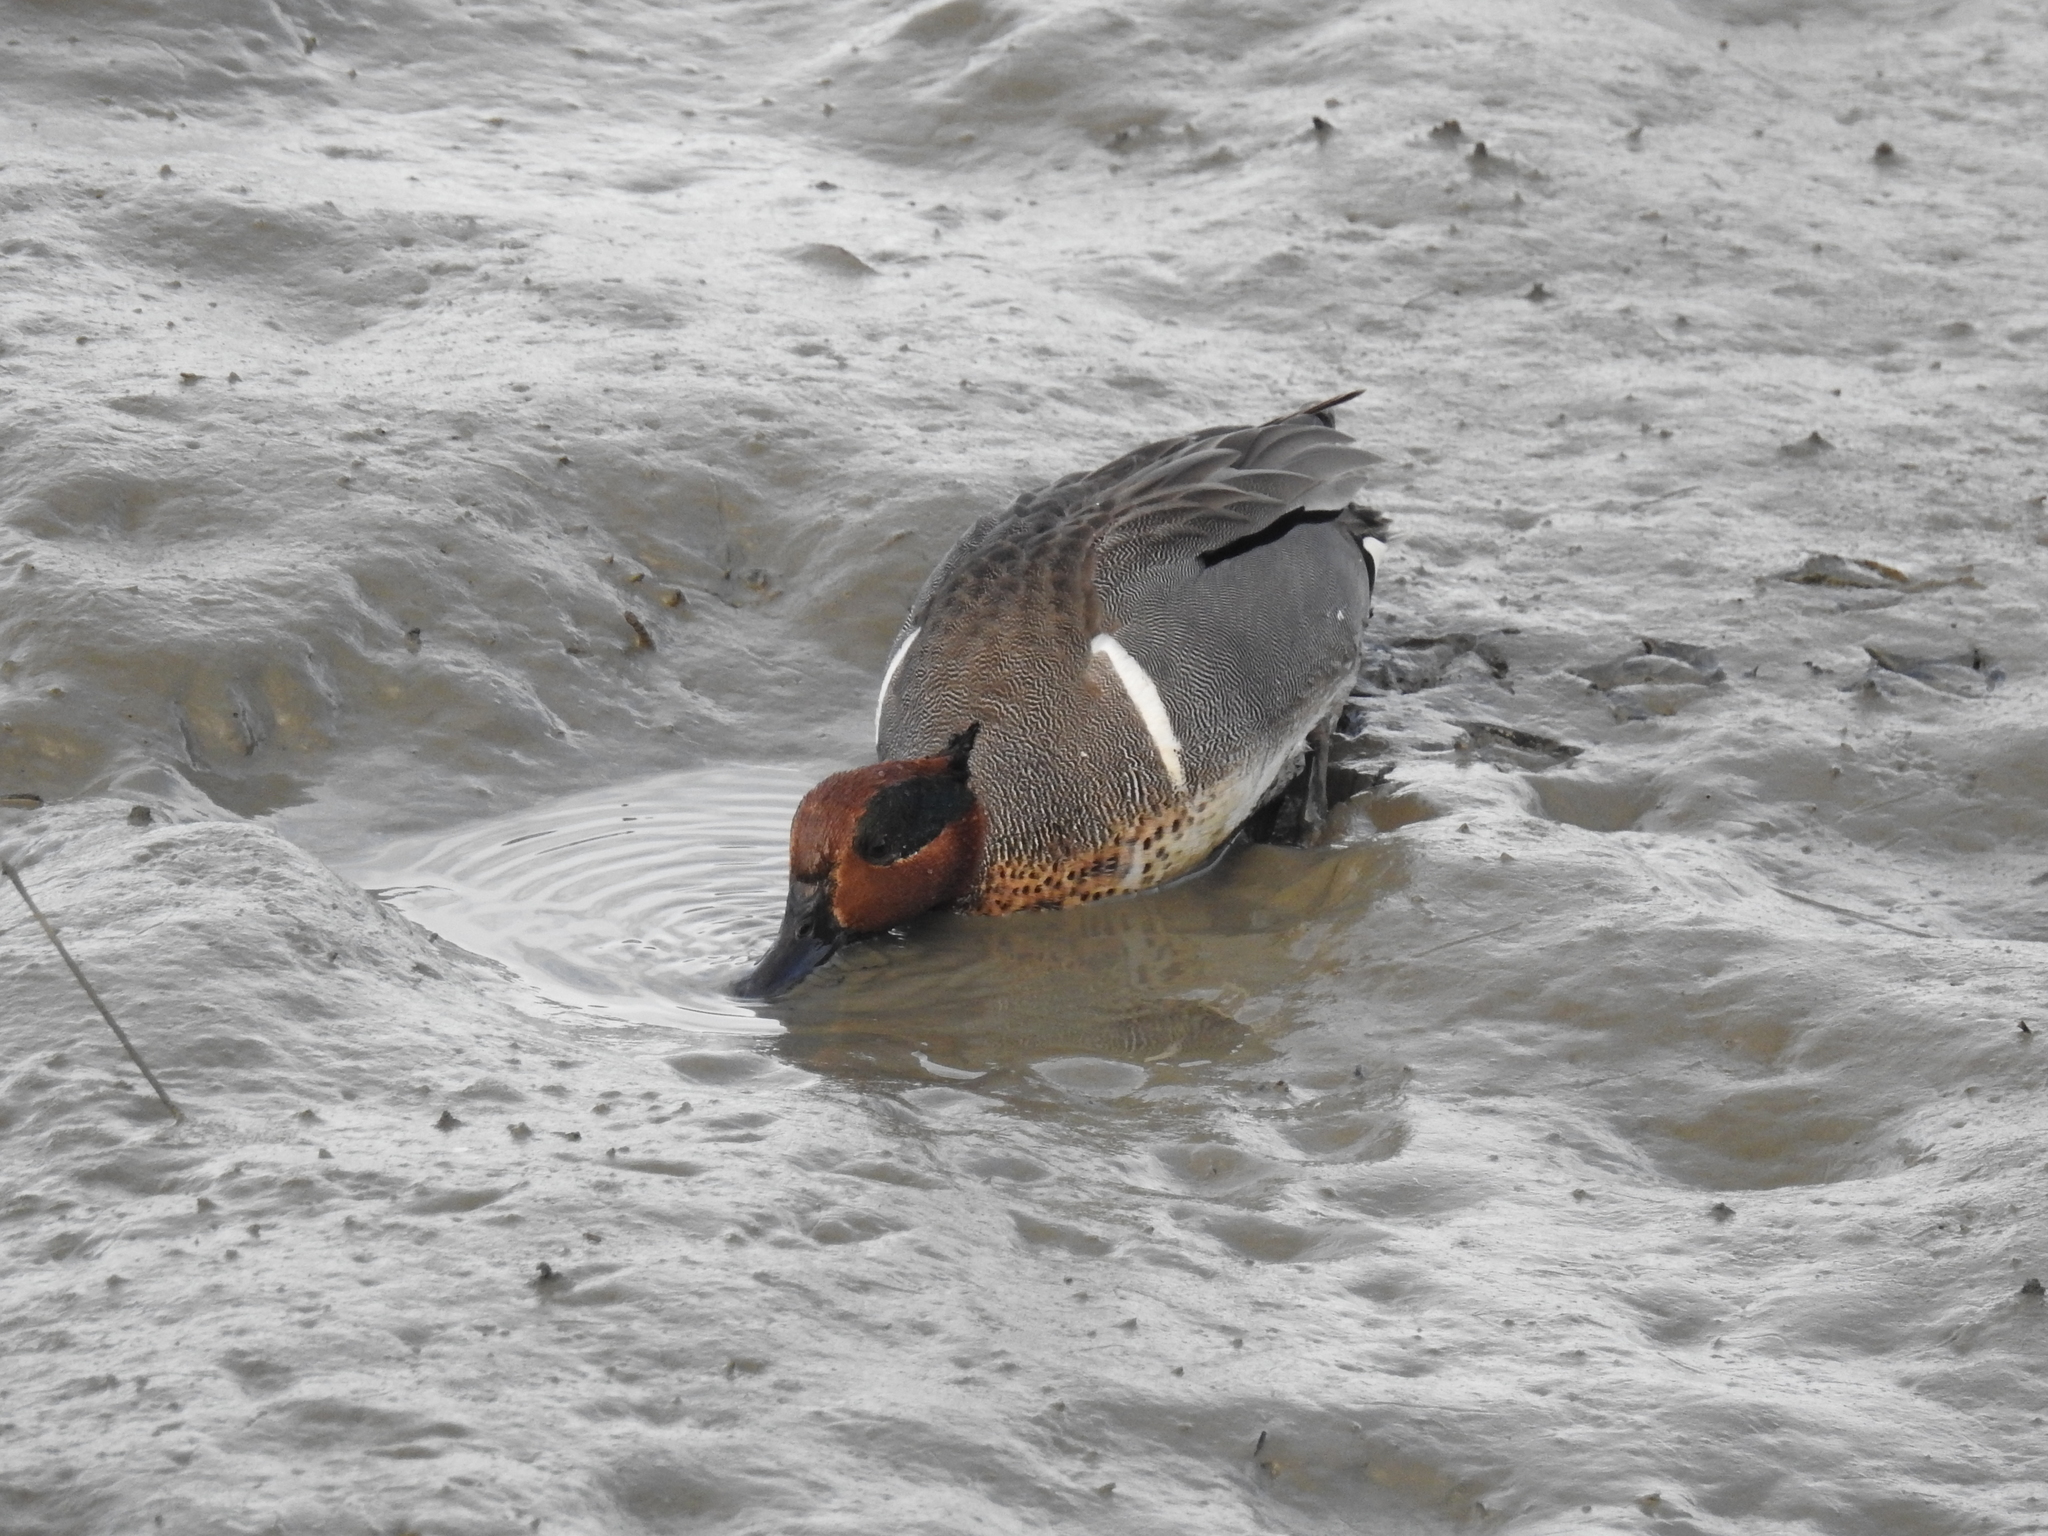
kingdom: Animalia
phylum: Chordata
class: Aves
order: Anseriformes
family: Anatidae
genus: Anas
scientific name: Anas crecca
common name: Eurasian teal
